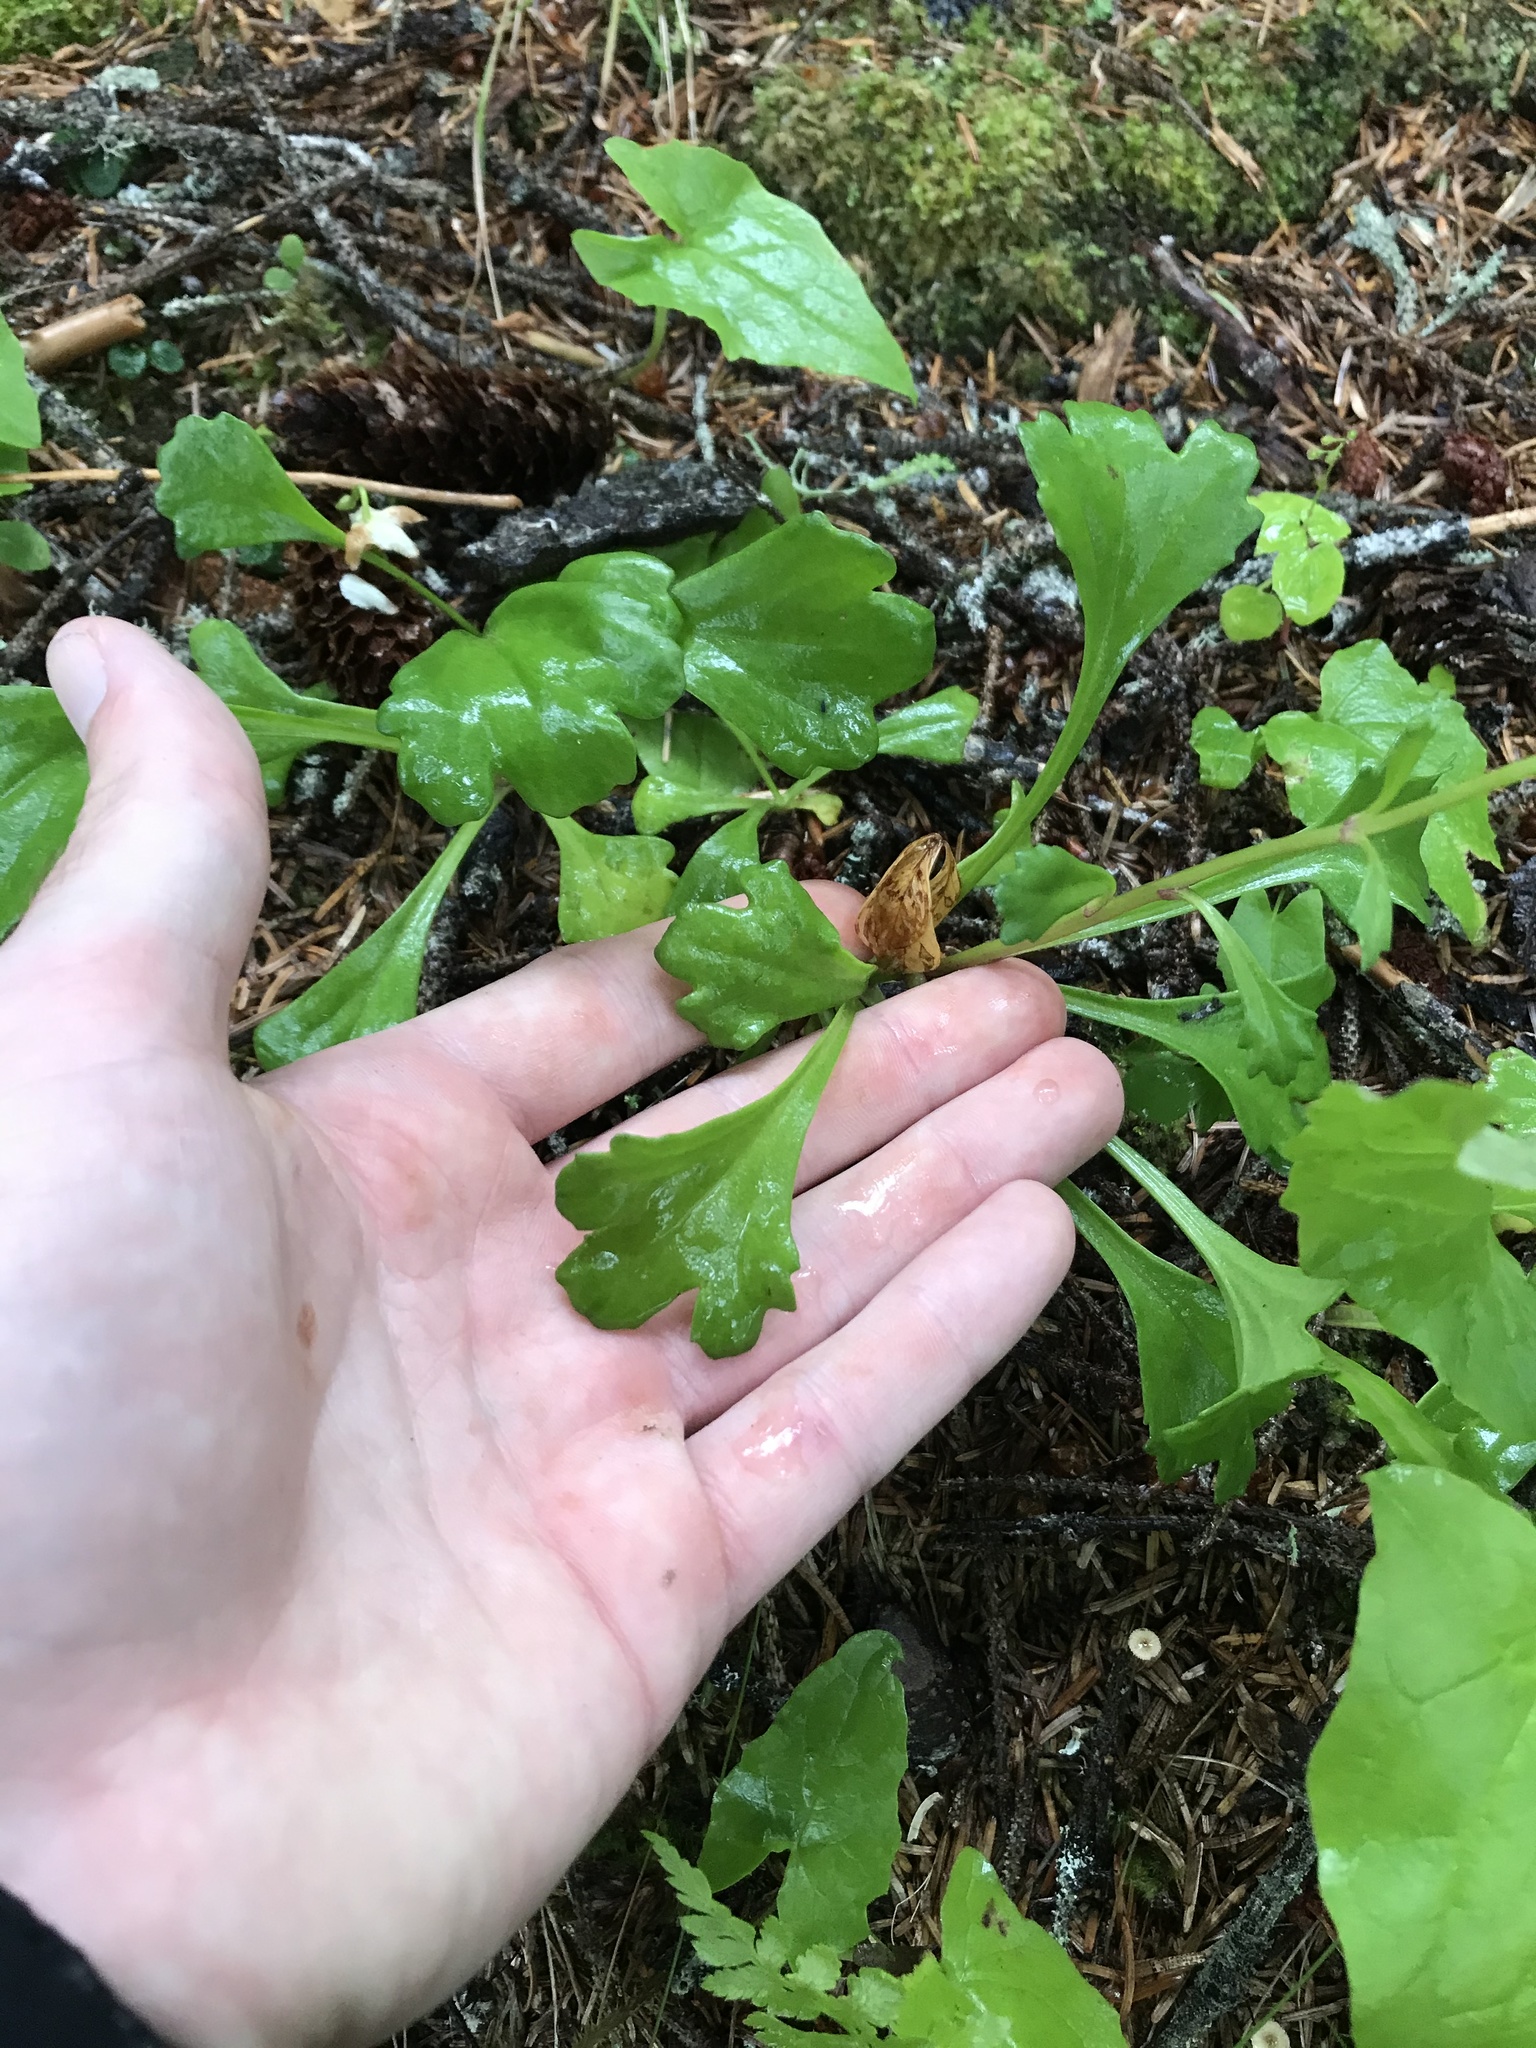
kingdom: Plantae
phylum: Tracheophyta
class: Magnoliopsida
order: Asterales
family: Asteraceae
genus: Arctanthemum
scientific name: Arctanthemum arcticum
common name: Arctic daisy
